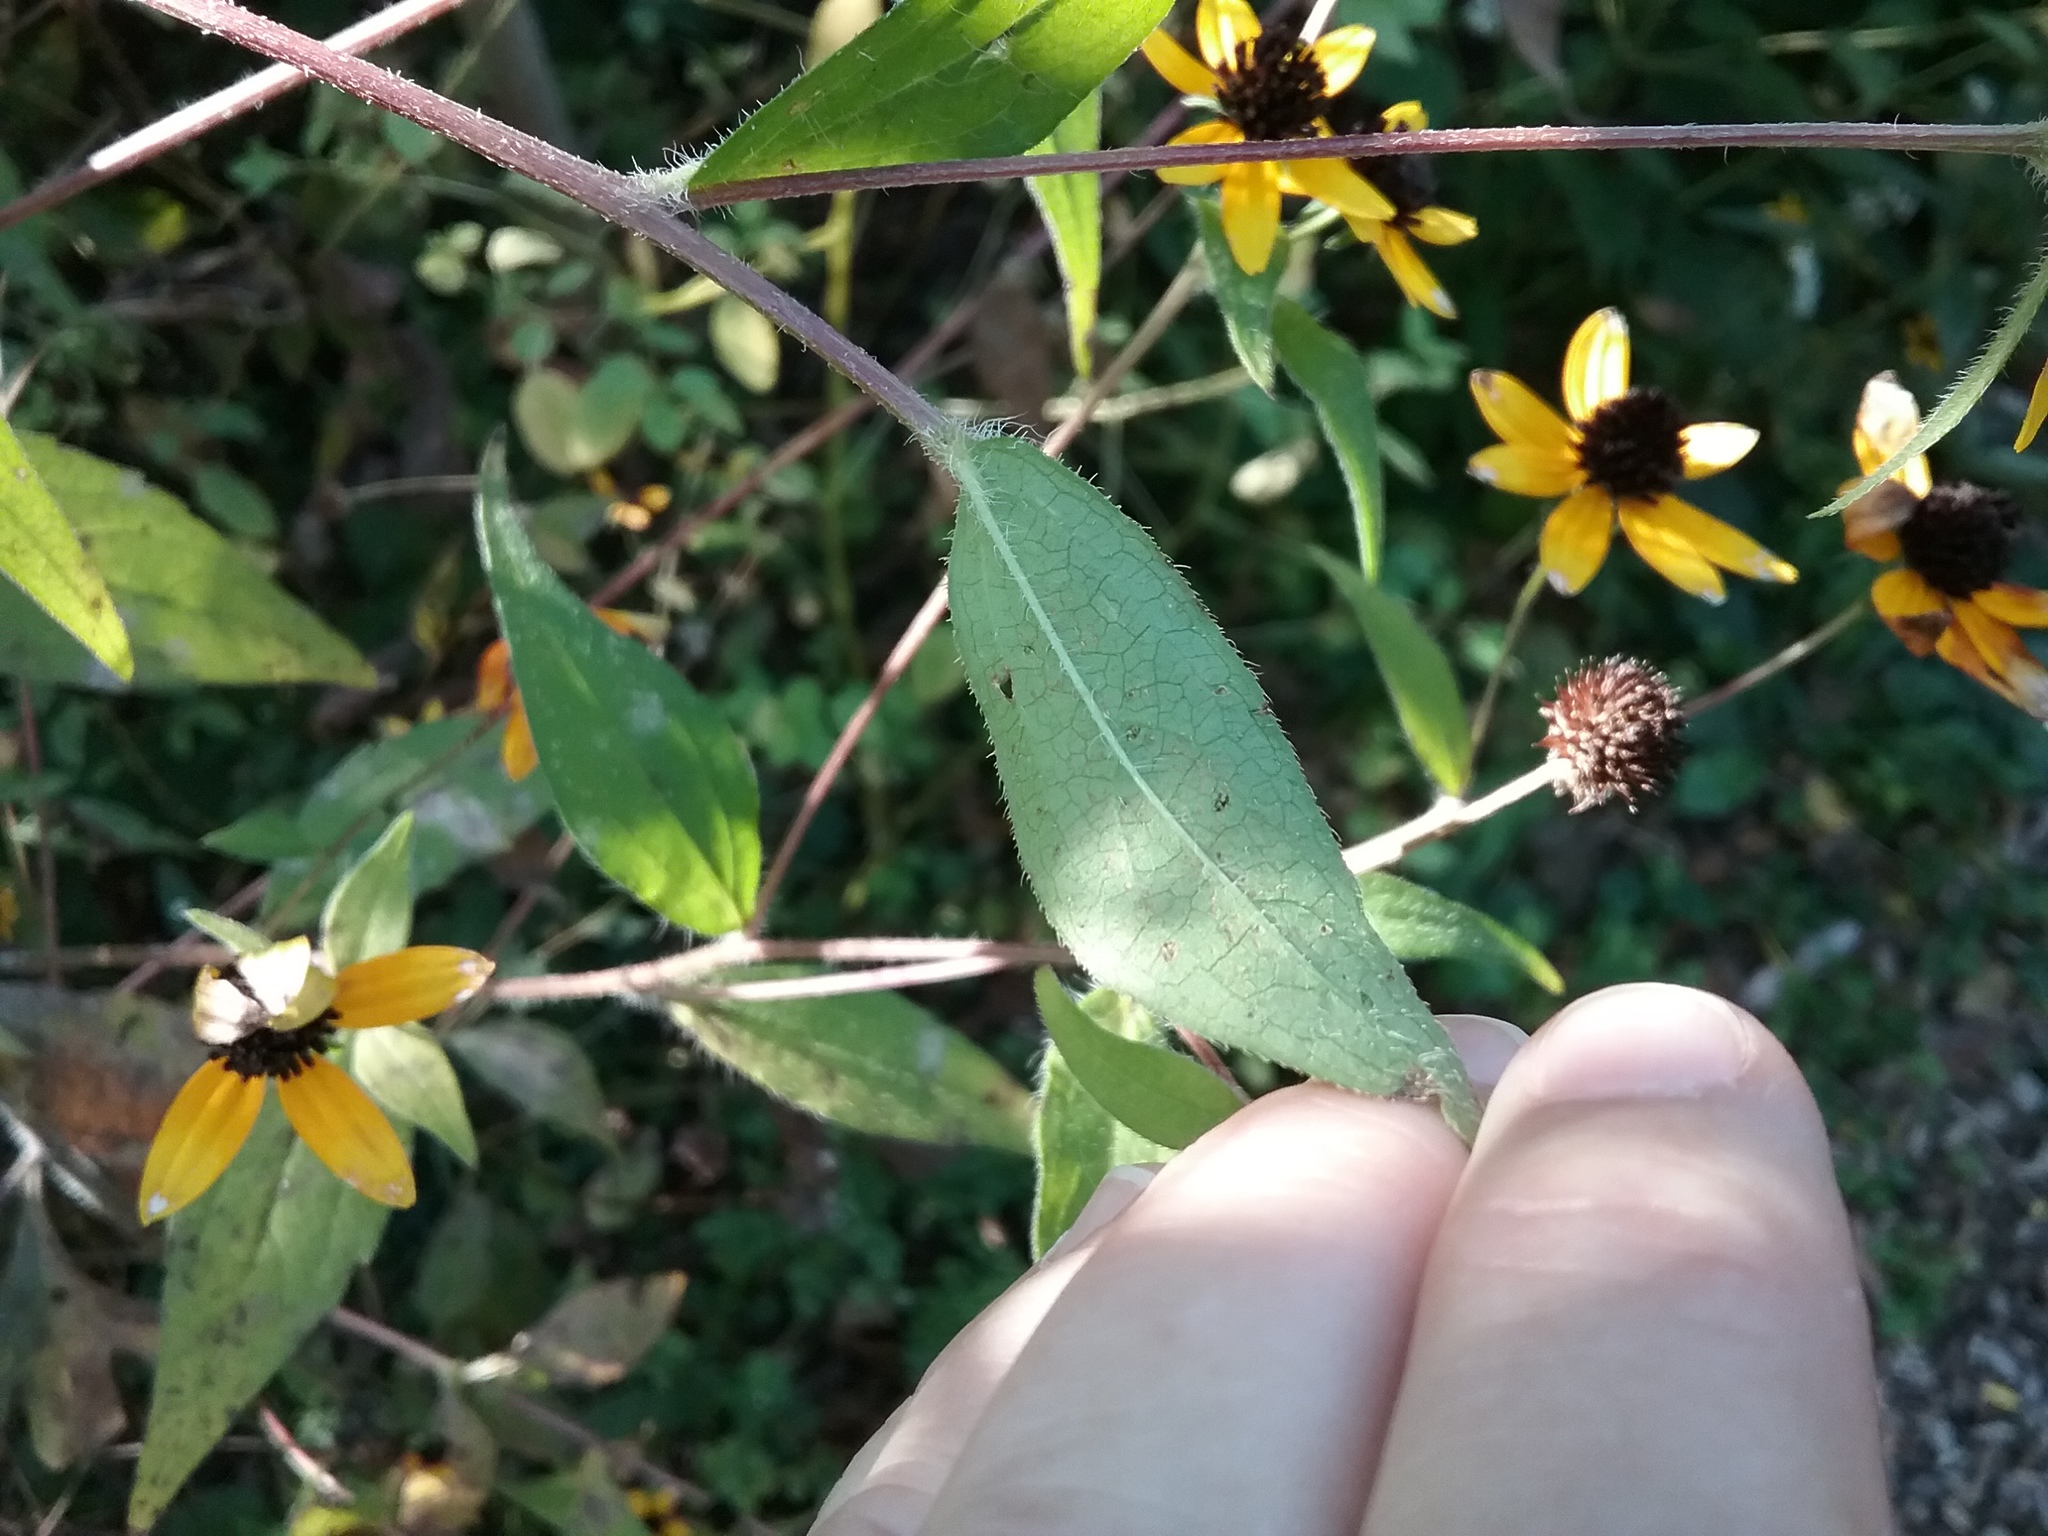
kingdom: Plantae
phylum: Tracheophyta
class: Magnoliopsida
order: Asterales
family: Asteraceae
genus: Rudbeckia
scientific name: Rudbeckia triloba
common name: Thin-leaved coneflower
